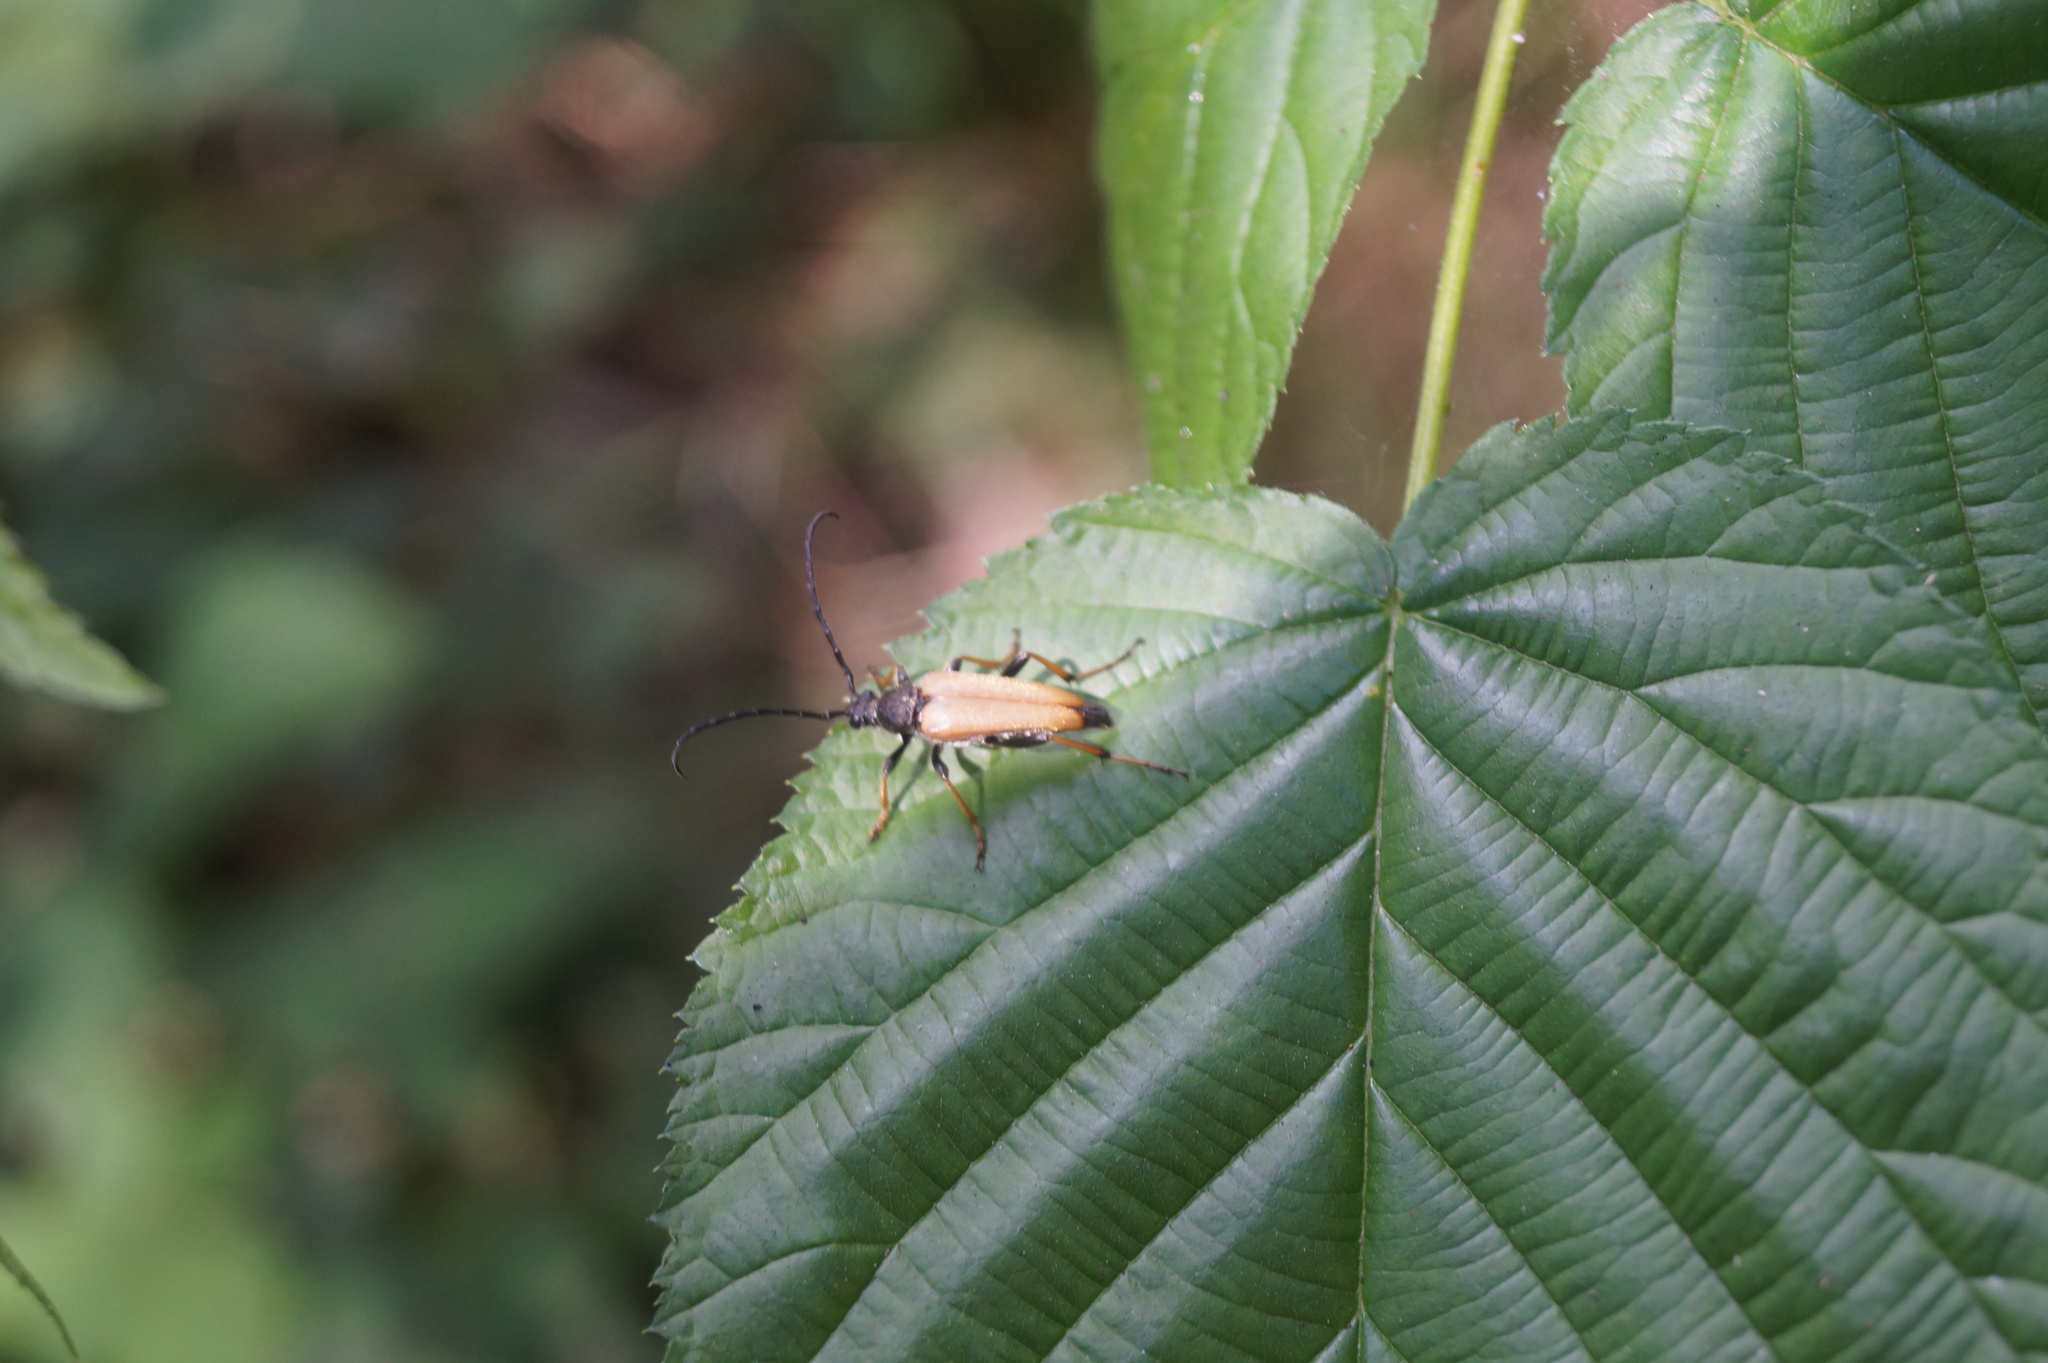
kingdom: Animalia
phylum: Arthropoda
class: Insecta
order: Coleoptera
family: Cerambycidae
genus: Stictoleptura
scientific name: Stictoleptura rubra
